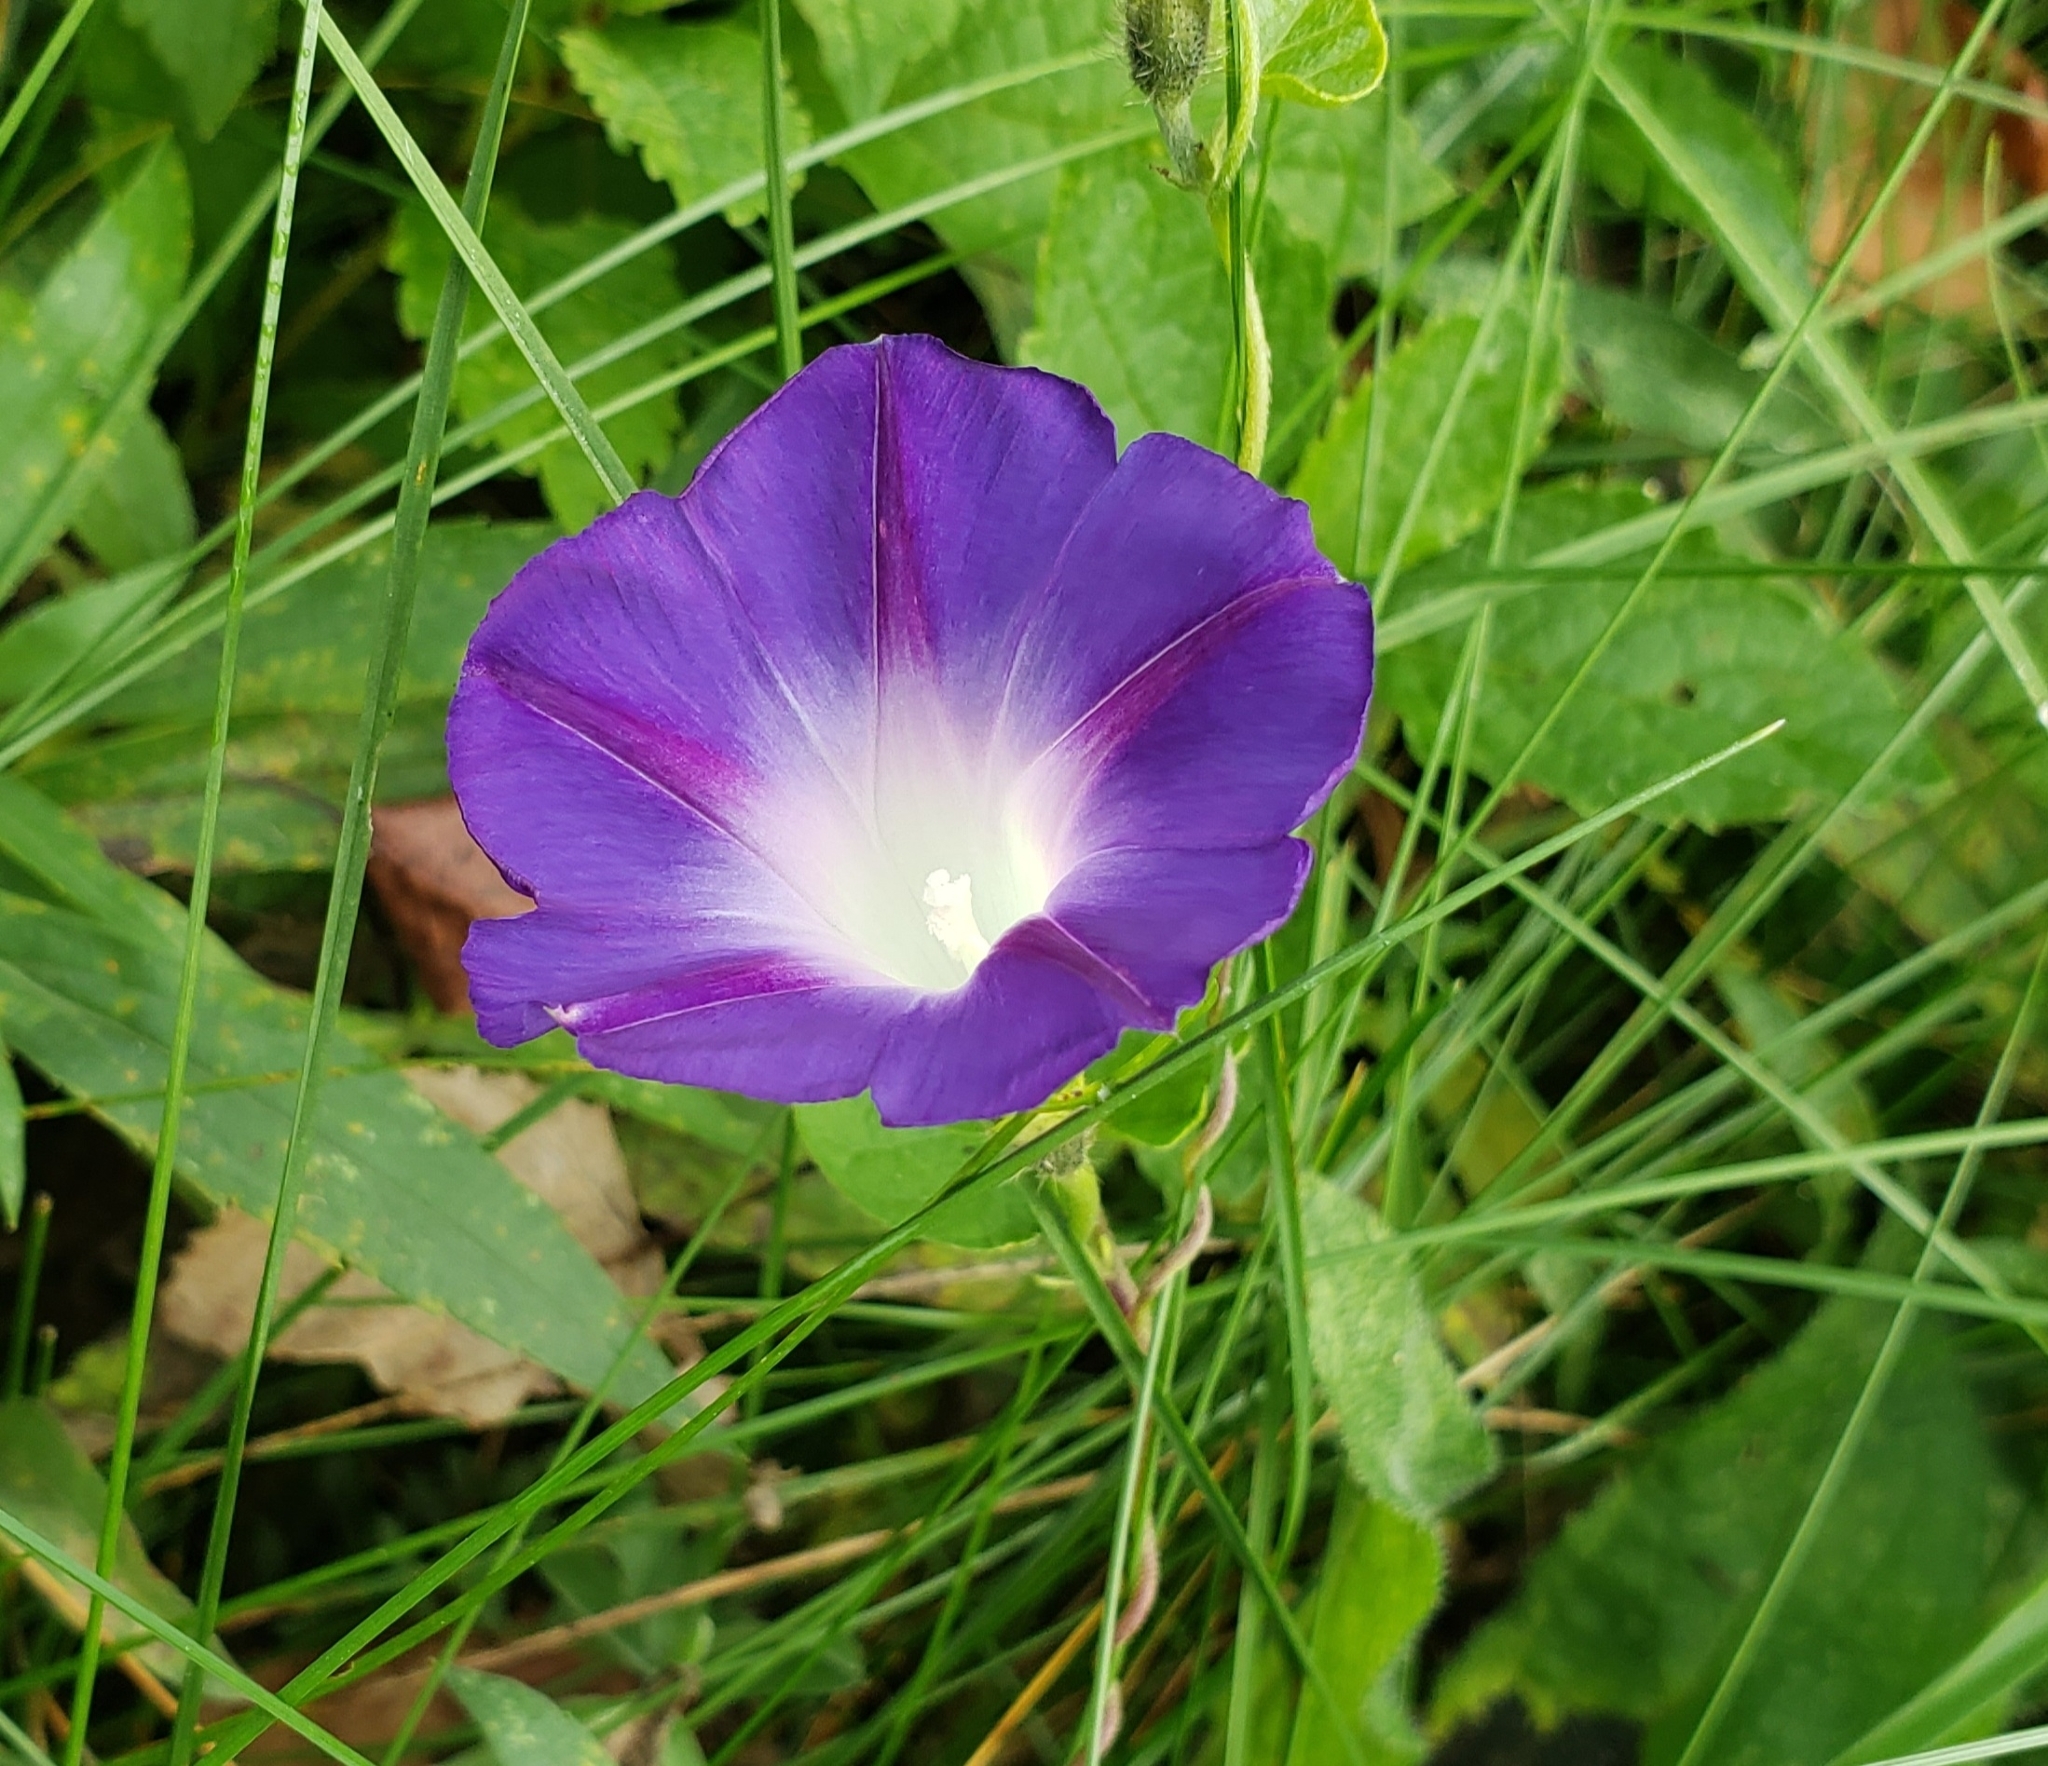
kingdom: Plantae
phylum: Tracheophyta
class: Magnoliopsida
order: Solanales
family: Convolvulaceae
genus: Ipomoea
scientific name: Ipomoea purpurea
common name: Common morning-glory
